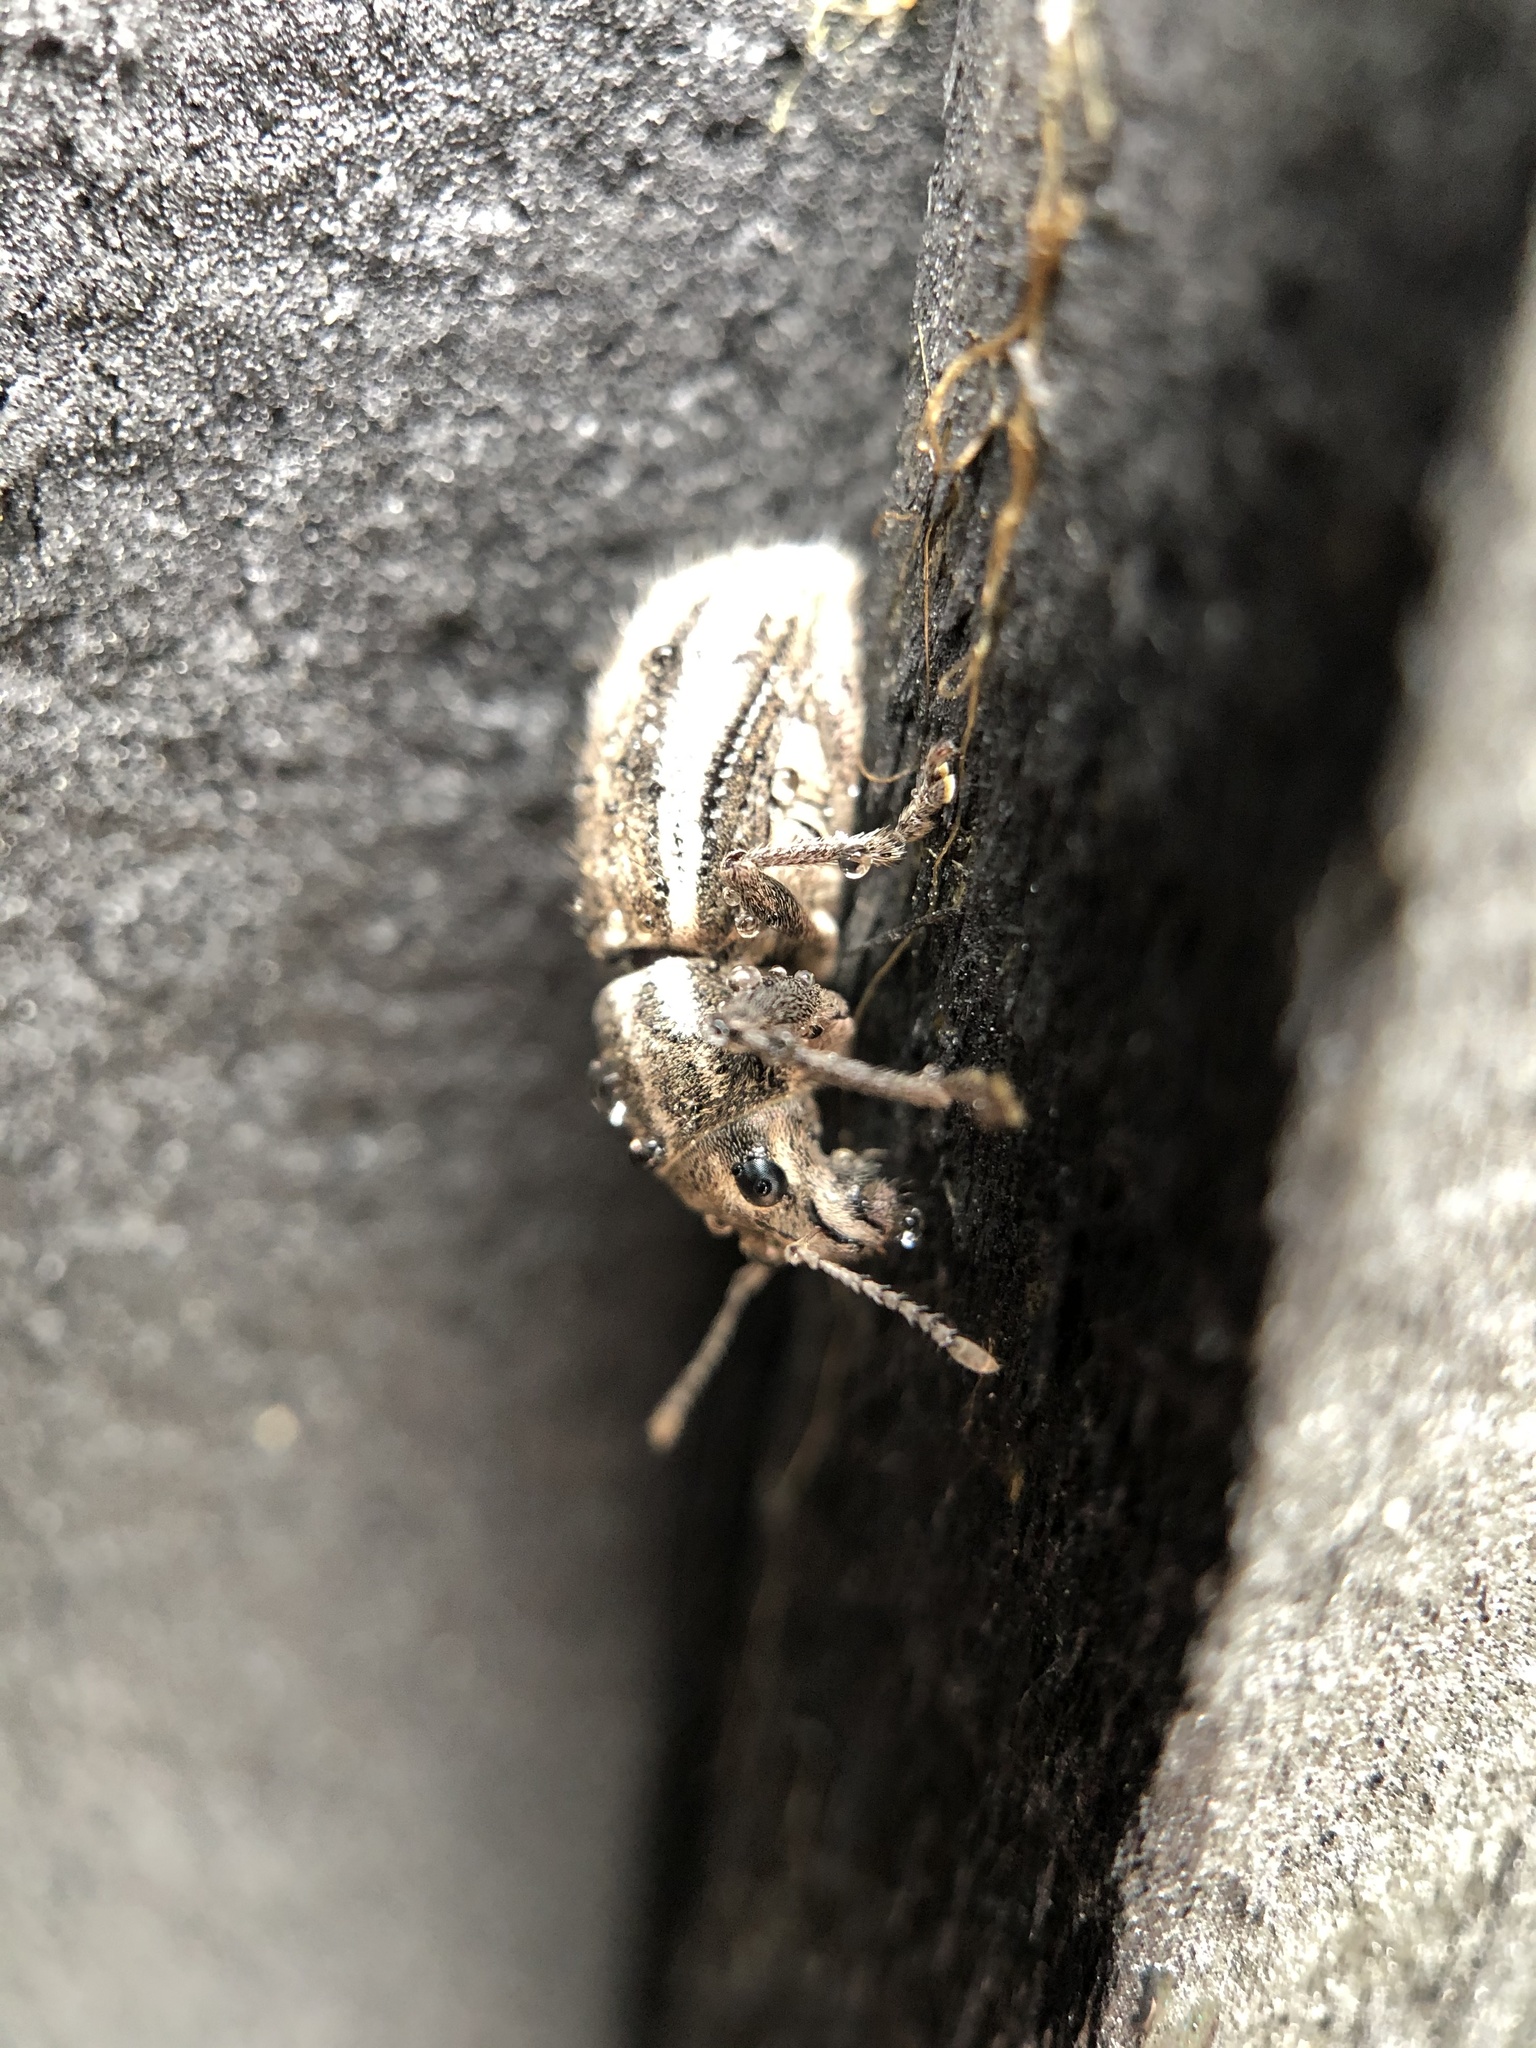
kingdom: Animalia
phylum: Arthropoda
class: Insecta
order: Coleoptera
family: Curculionidae
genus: Naupactus
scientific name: Naupactus leucoloma
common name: Whitefringed beetle
